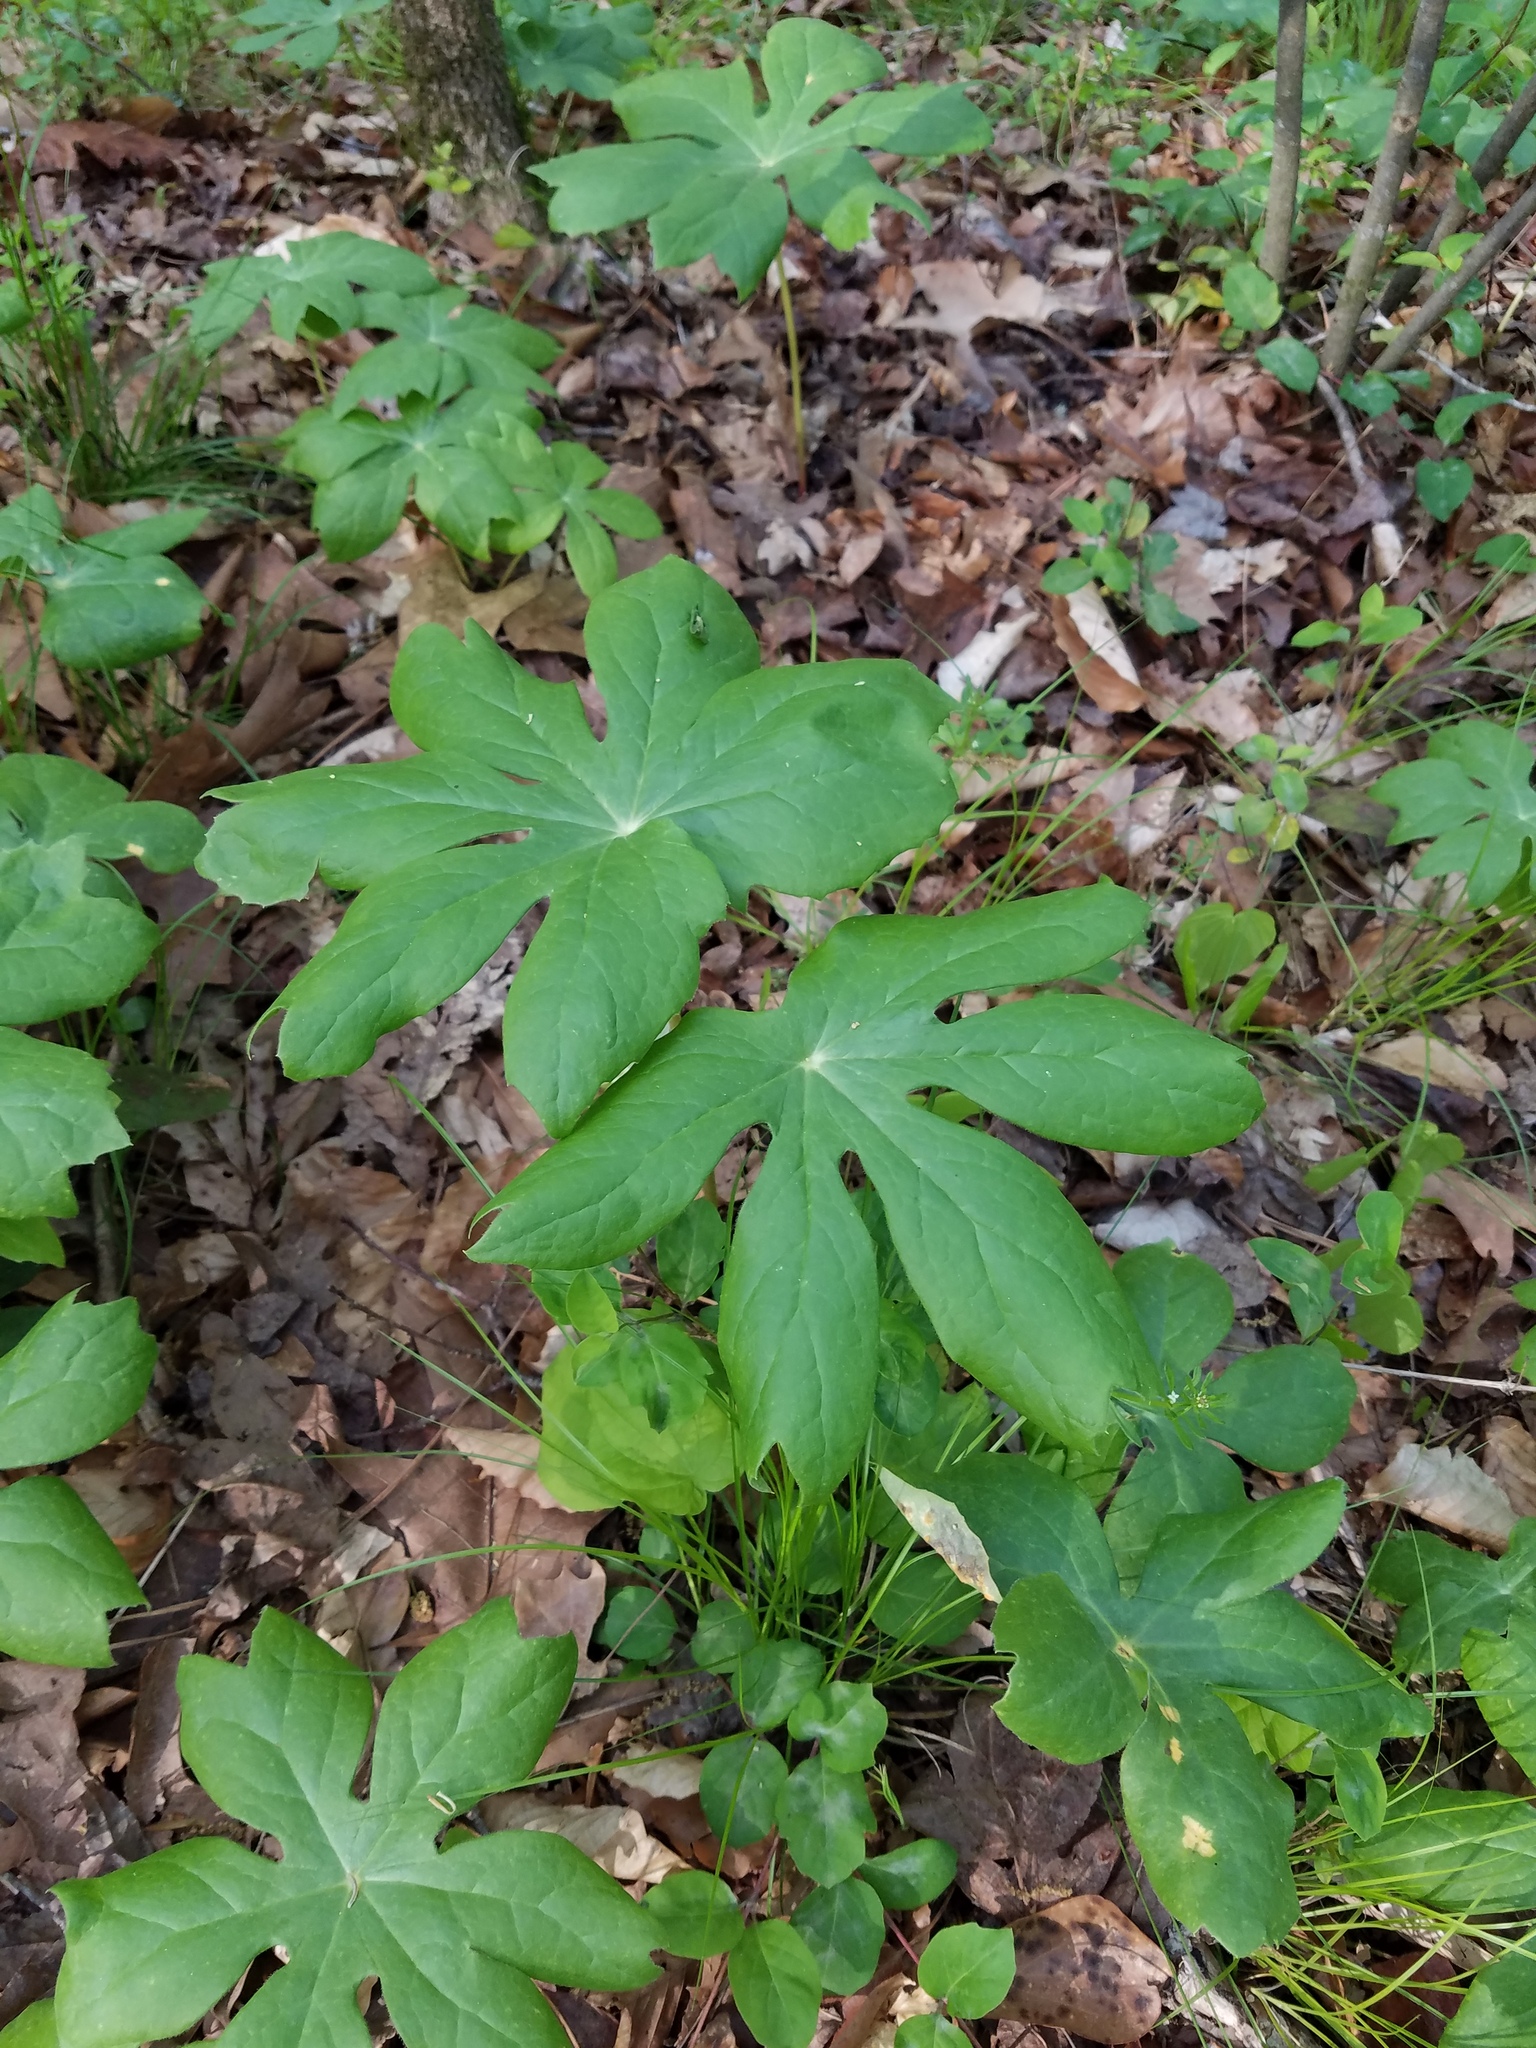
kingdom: Plantae
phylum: Tracheophyta
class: Magnoliopsida
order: Ranunculales
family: Berberidaceae
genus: Podophyllum
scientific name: Podophyllum peltatum
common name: Wild mandrake
